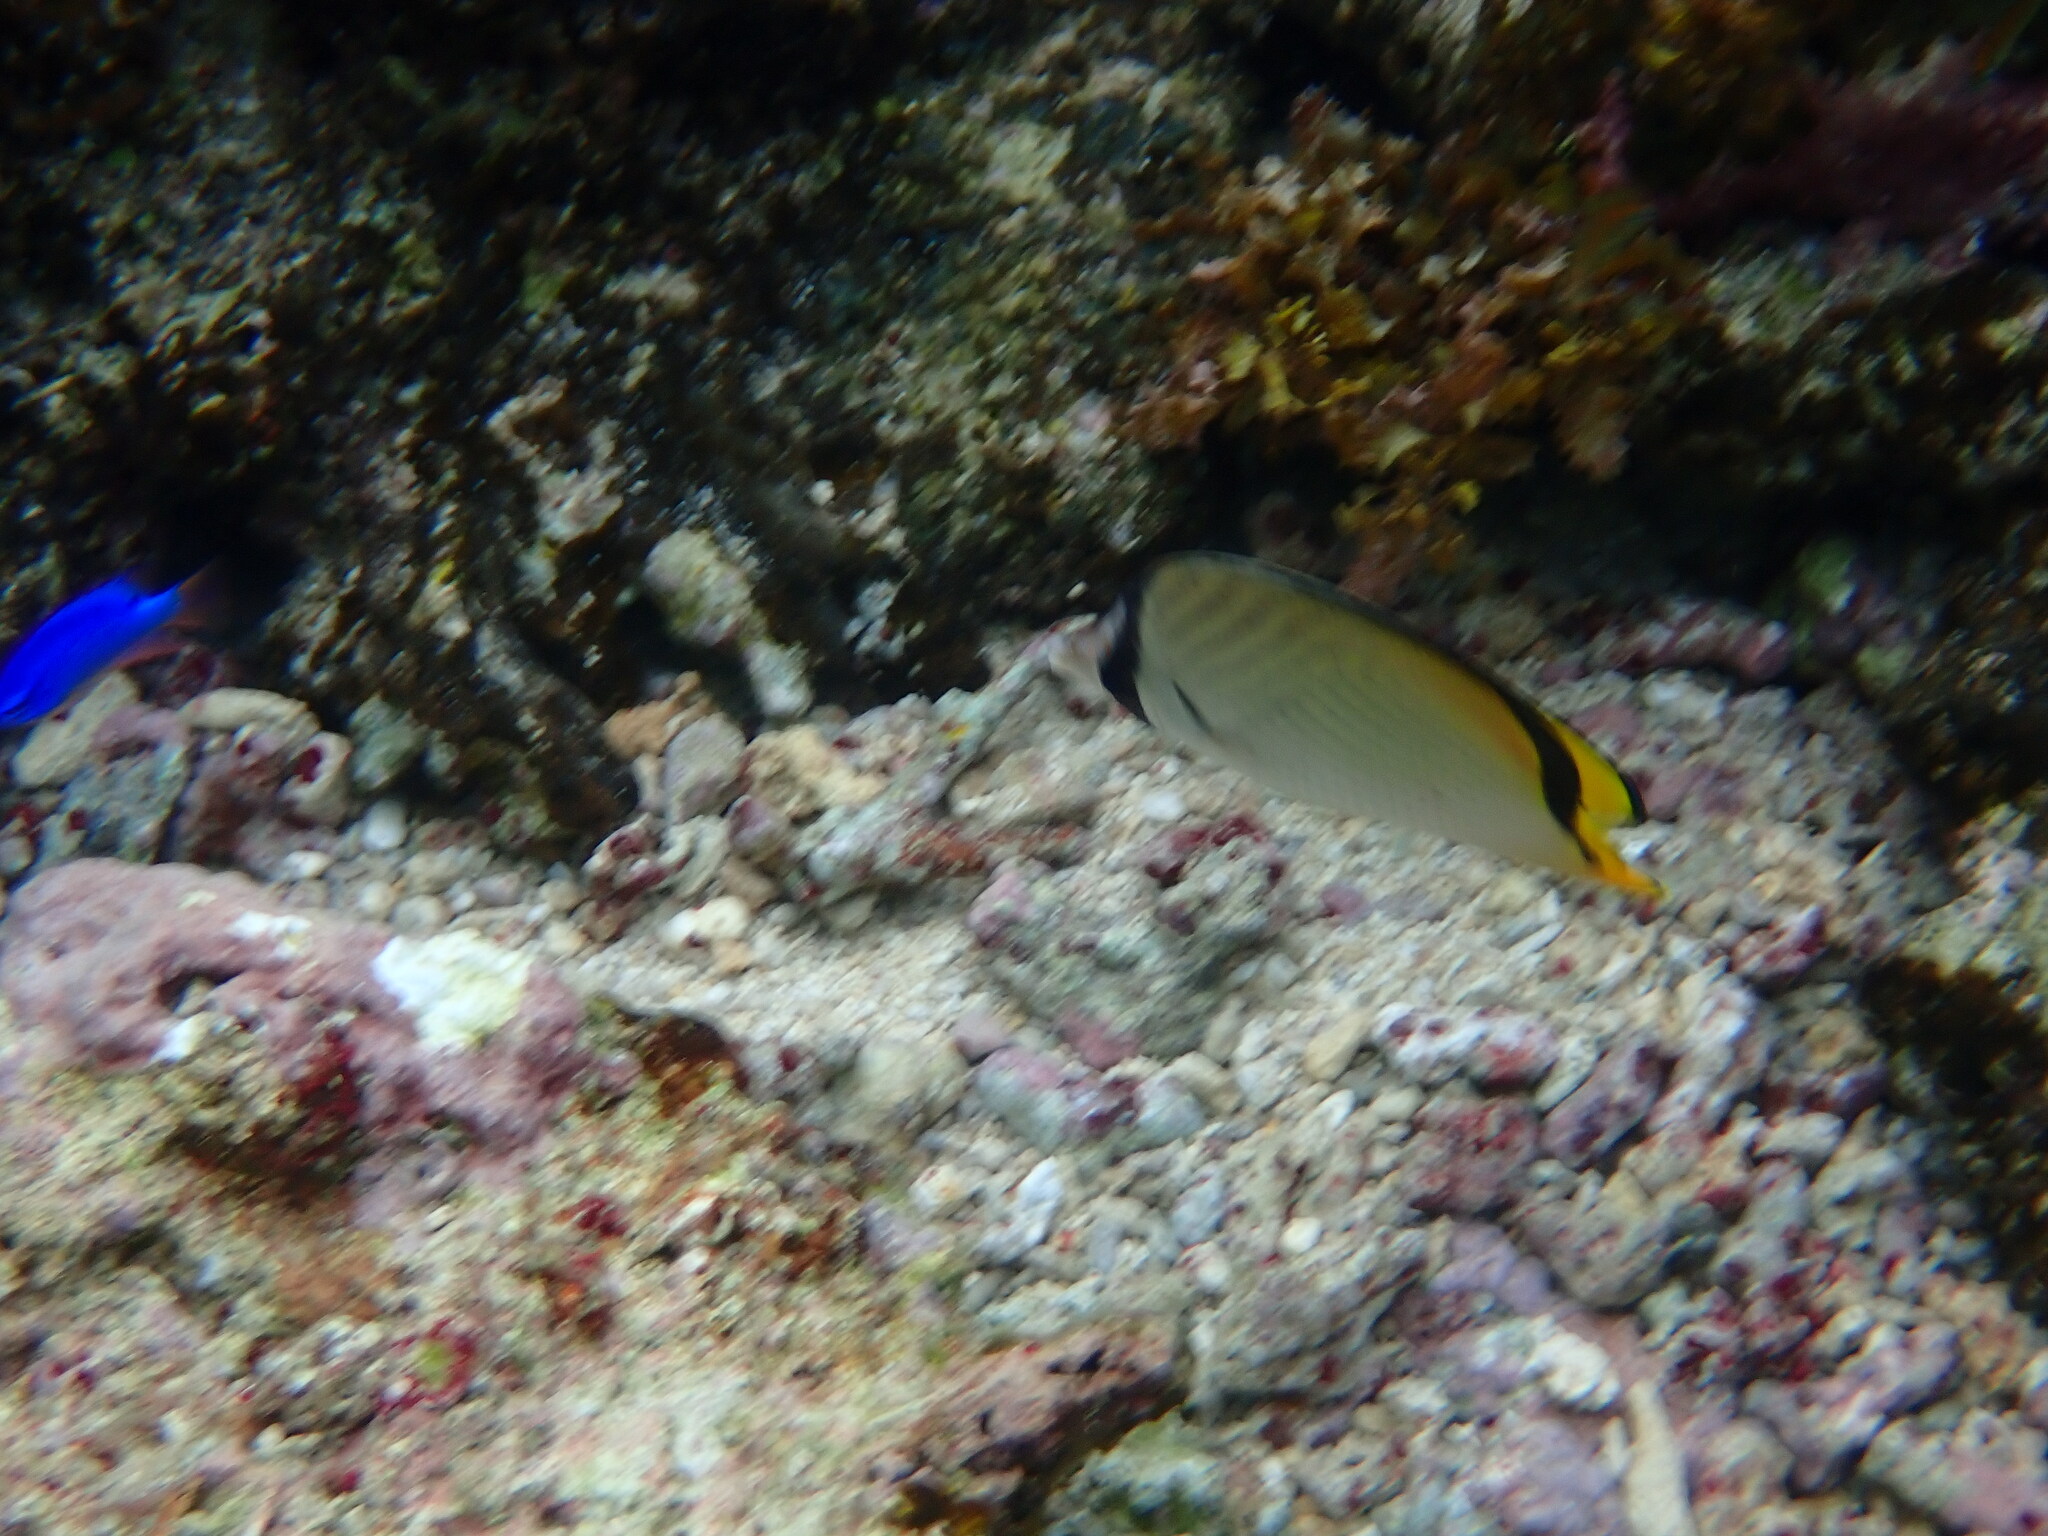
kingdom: Animalia
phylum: Chordata
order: Perciformes
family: Chaetodontidae
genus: Chaetodon
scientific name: Chaetodon vagabundus
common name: Vagabond butterflyfish
